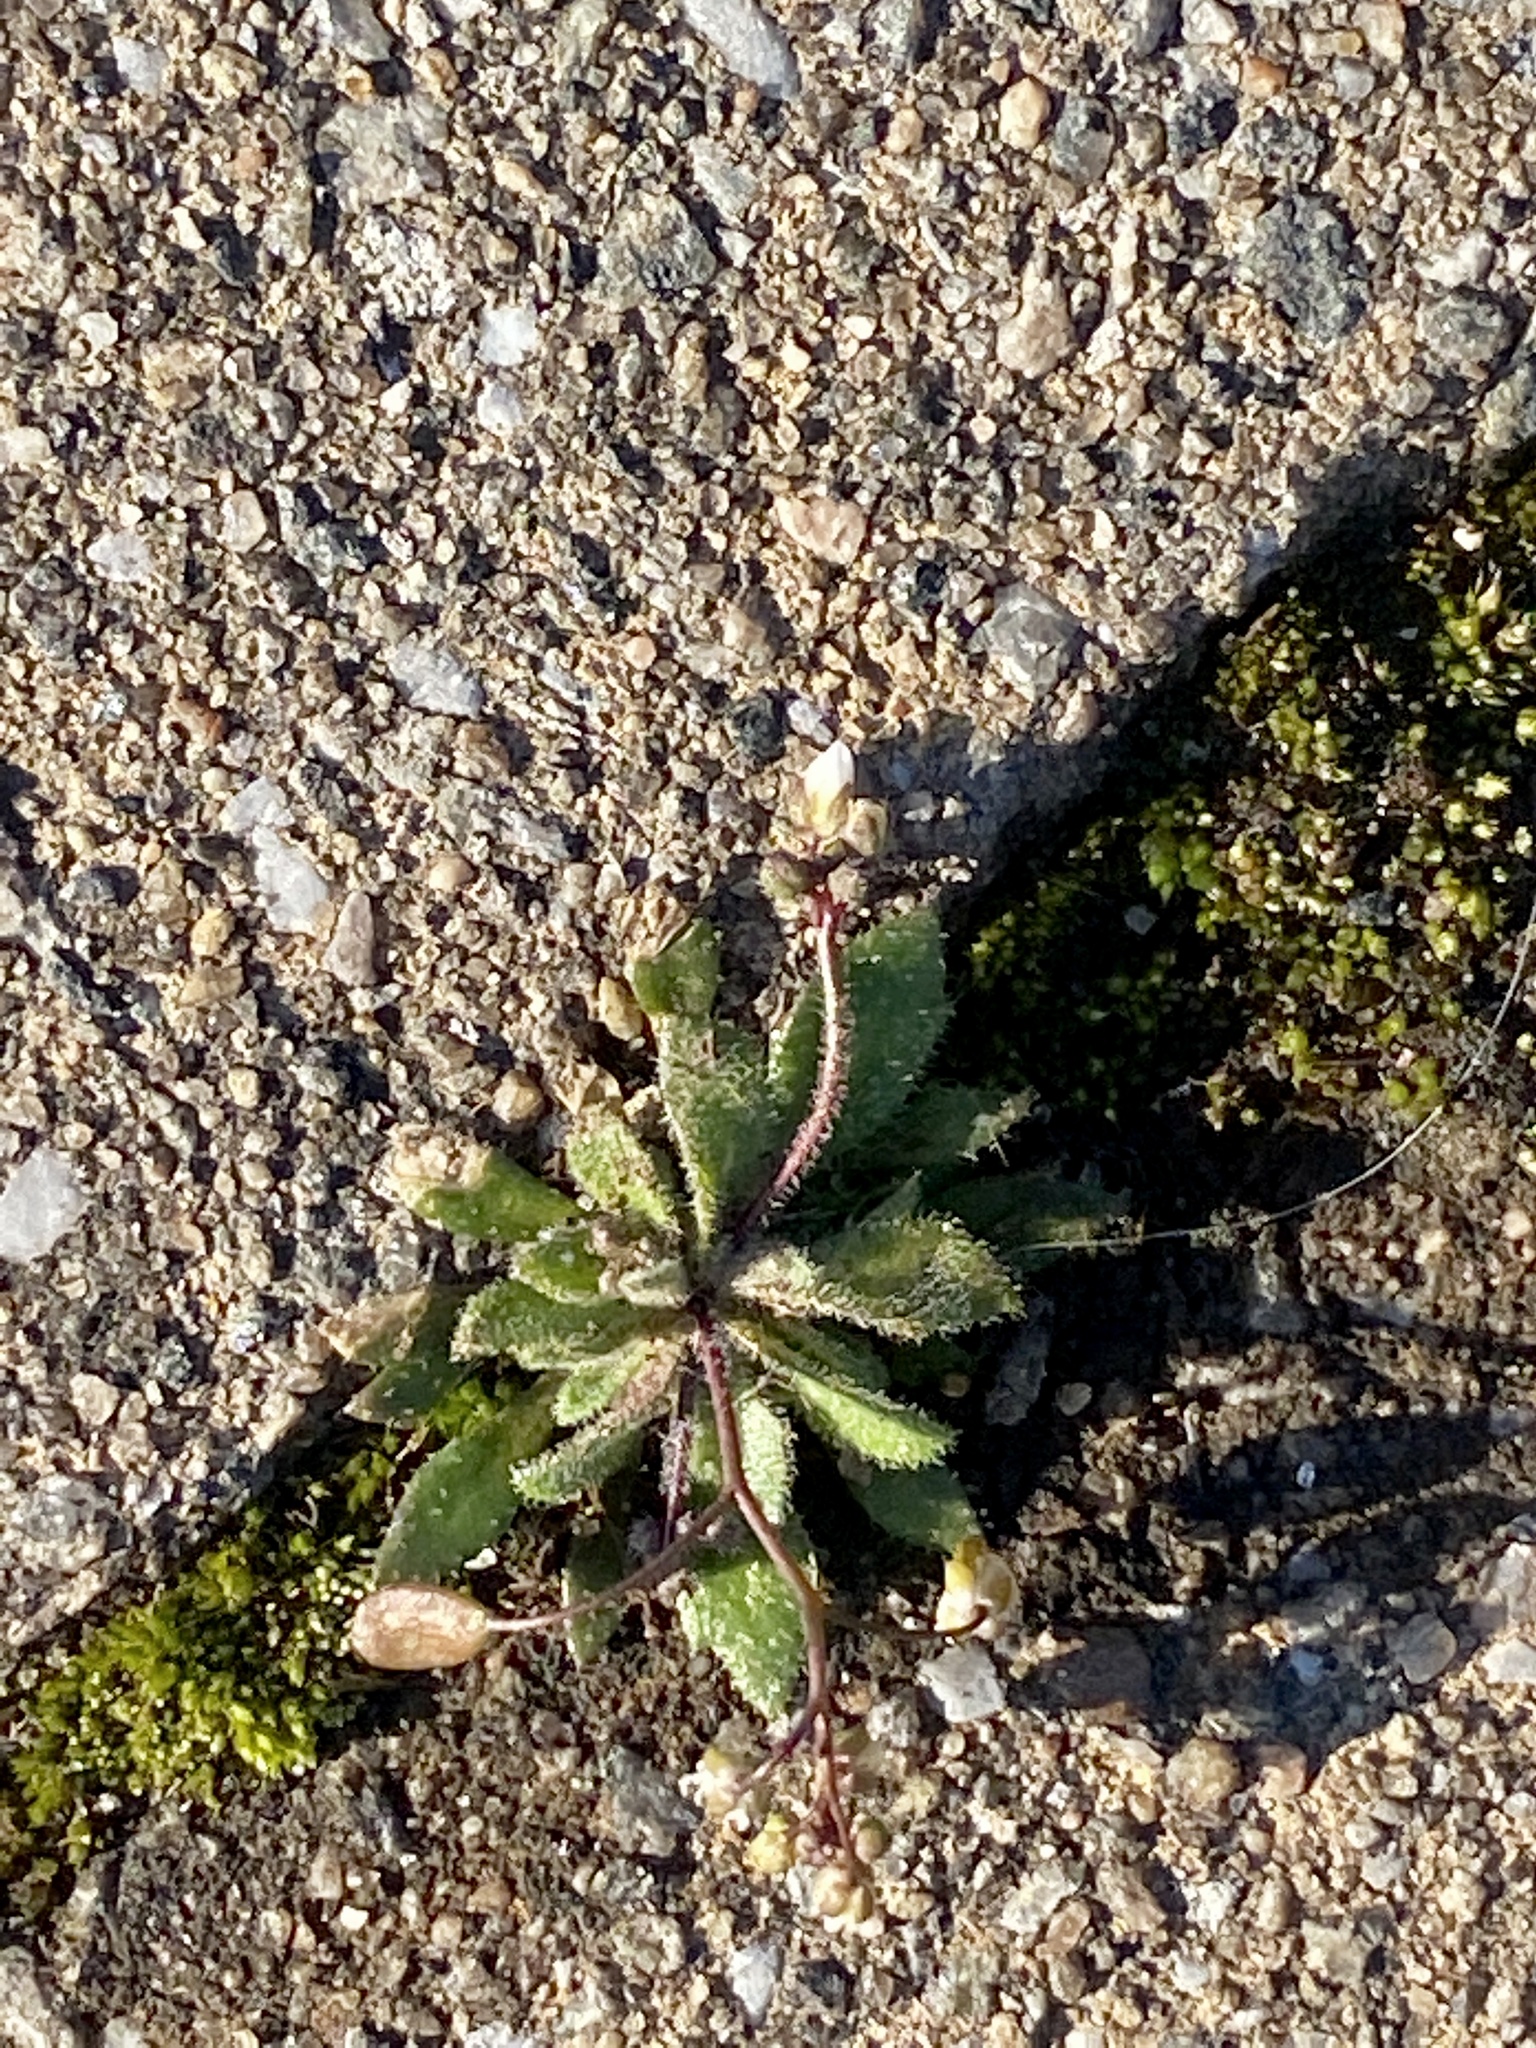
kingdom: Plantae
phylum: Tracheophyta
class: Magnoliopsida
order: Brassicales
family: Brassicaceae
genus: Draba
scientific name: Draba verna
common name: Spring draba
